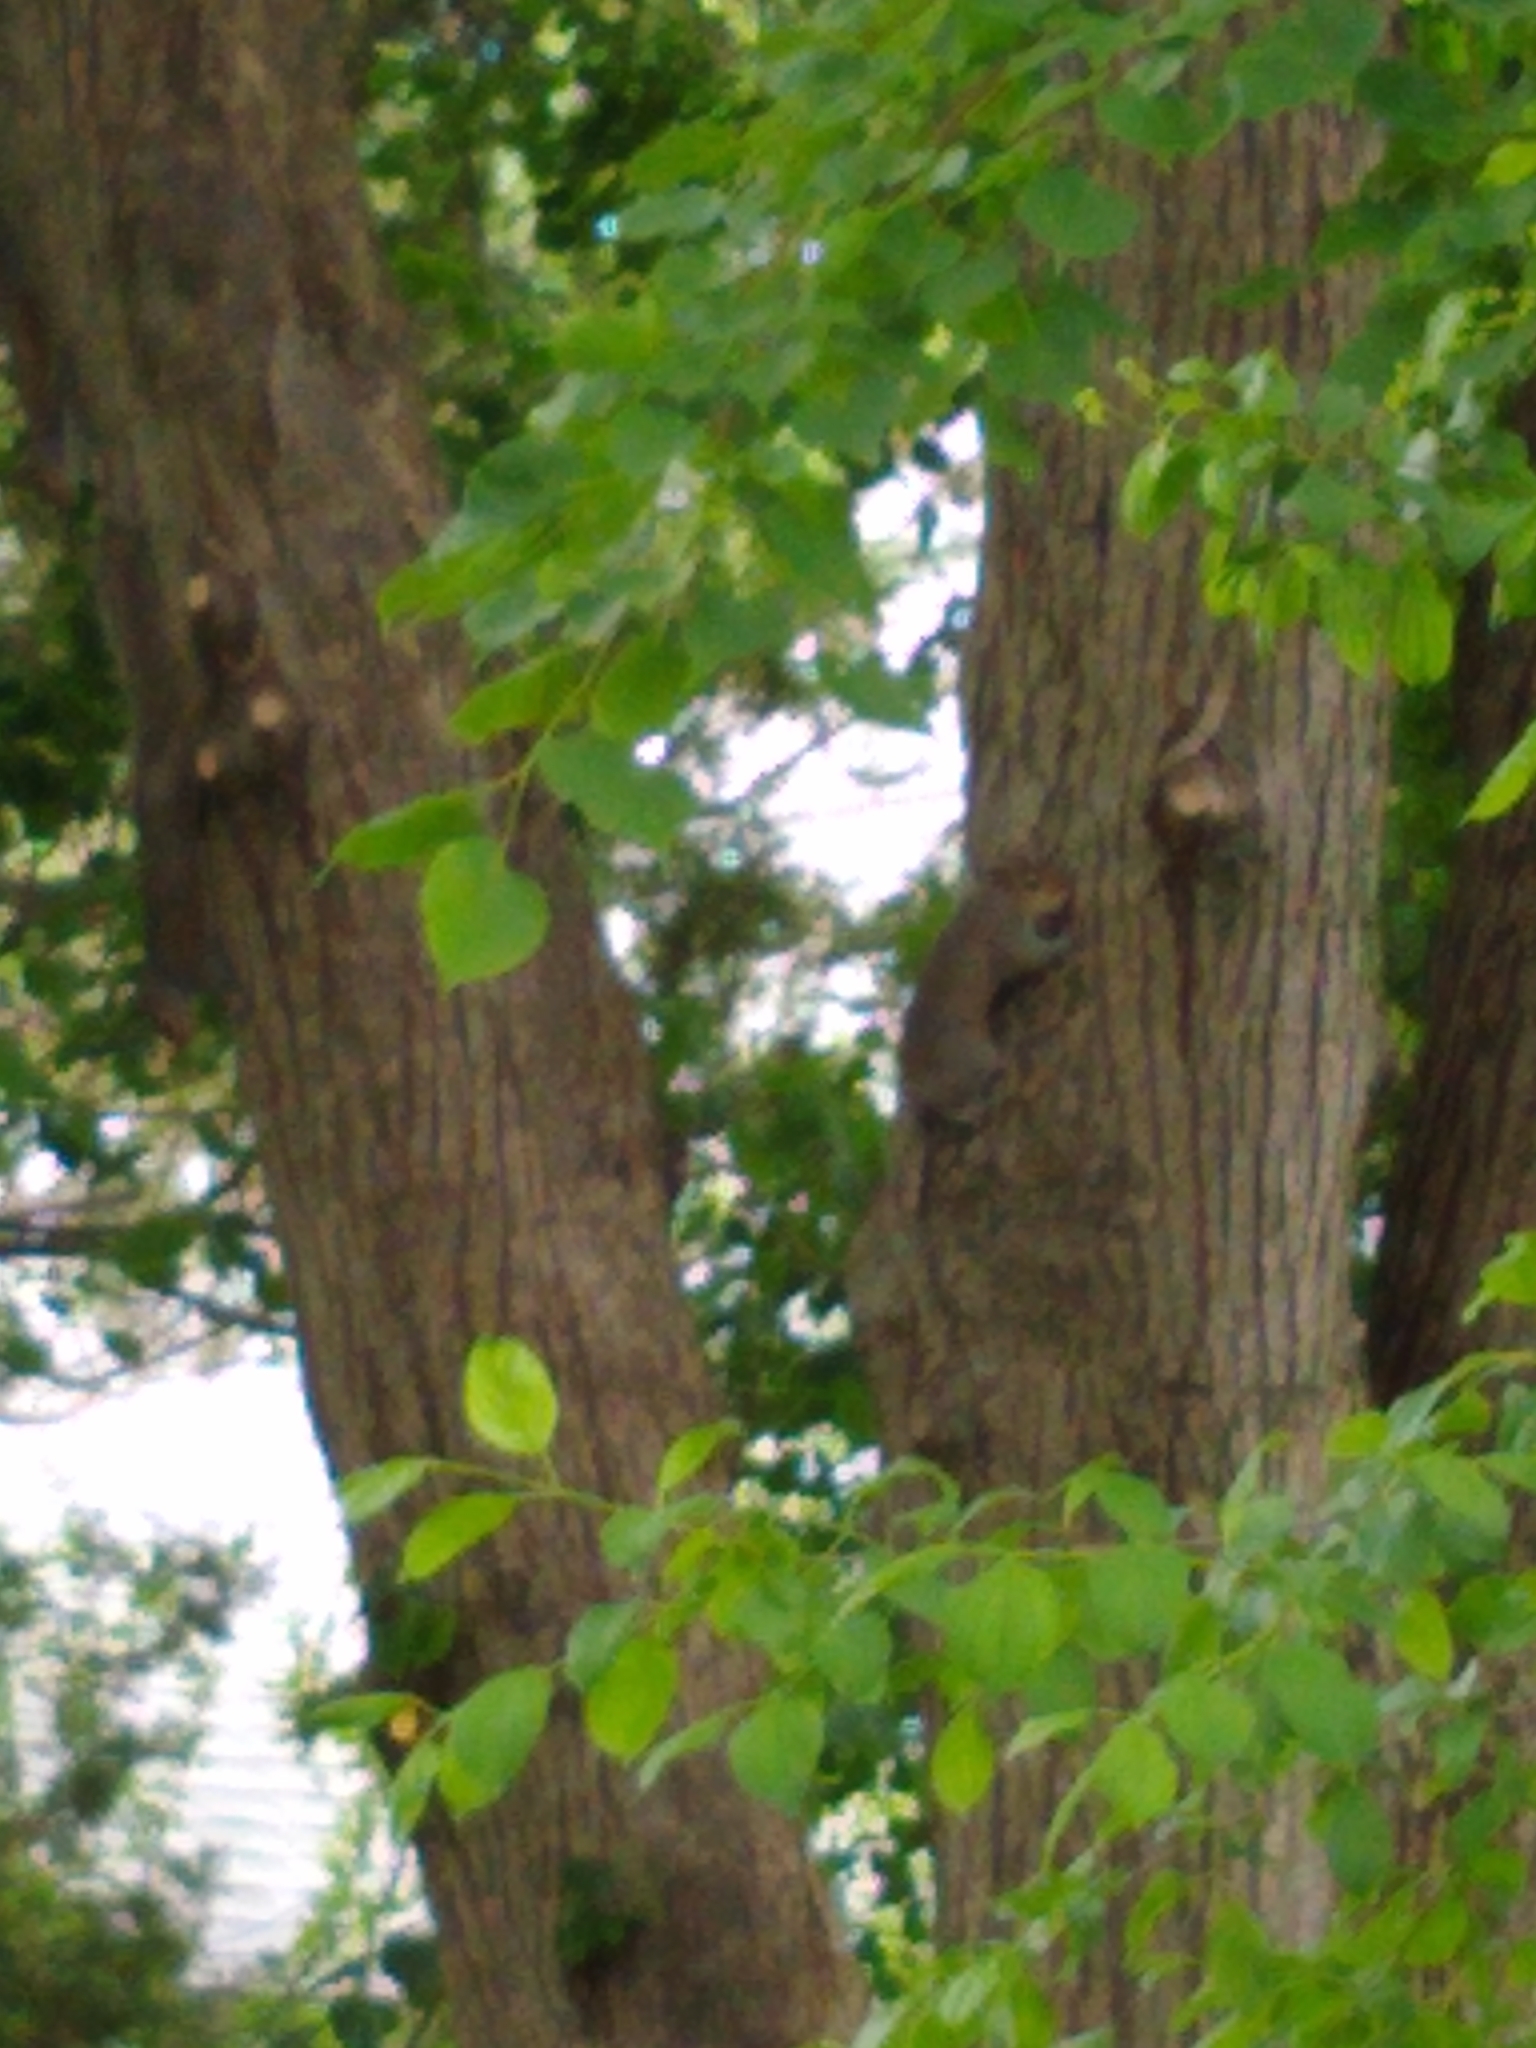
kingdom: Animalia
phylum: Chordata
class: Mammalia
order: Rodentia
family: Sciuridae
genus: Sciurus
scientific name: Sciurus carolinensis
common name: Eastern gray squirrel
